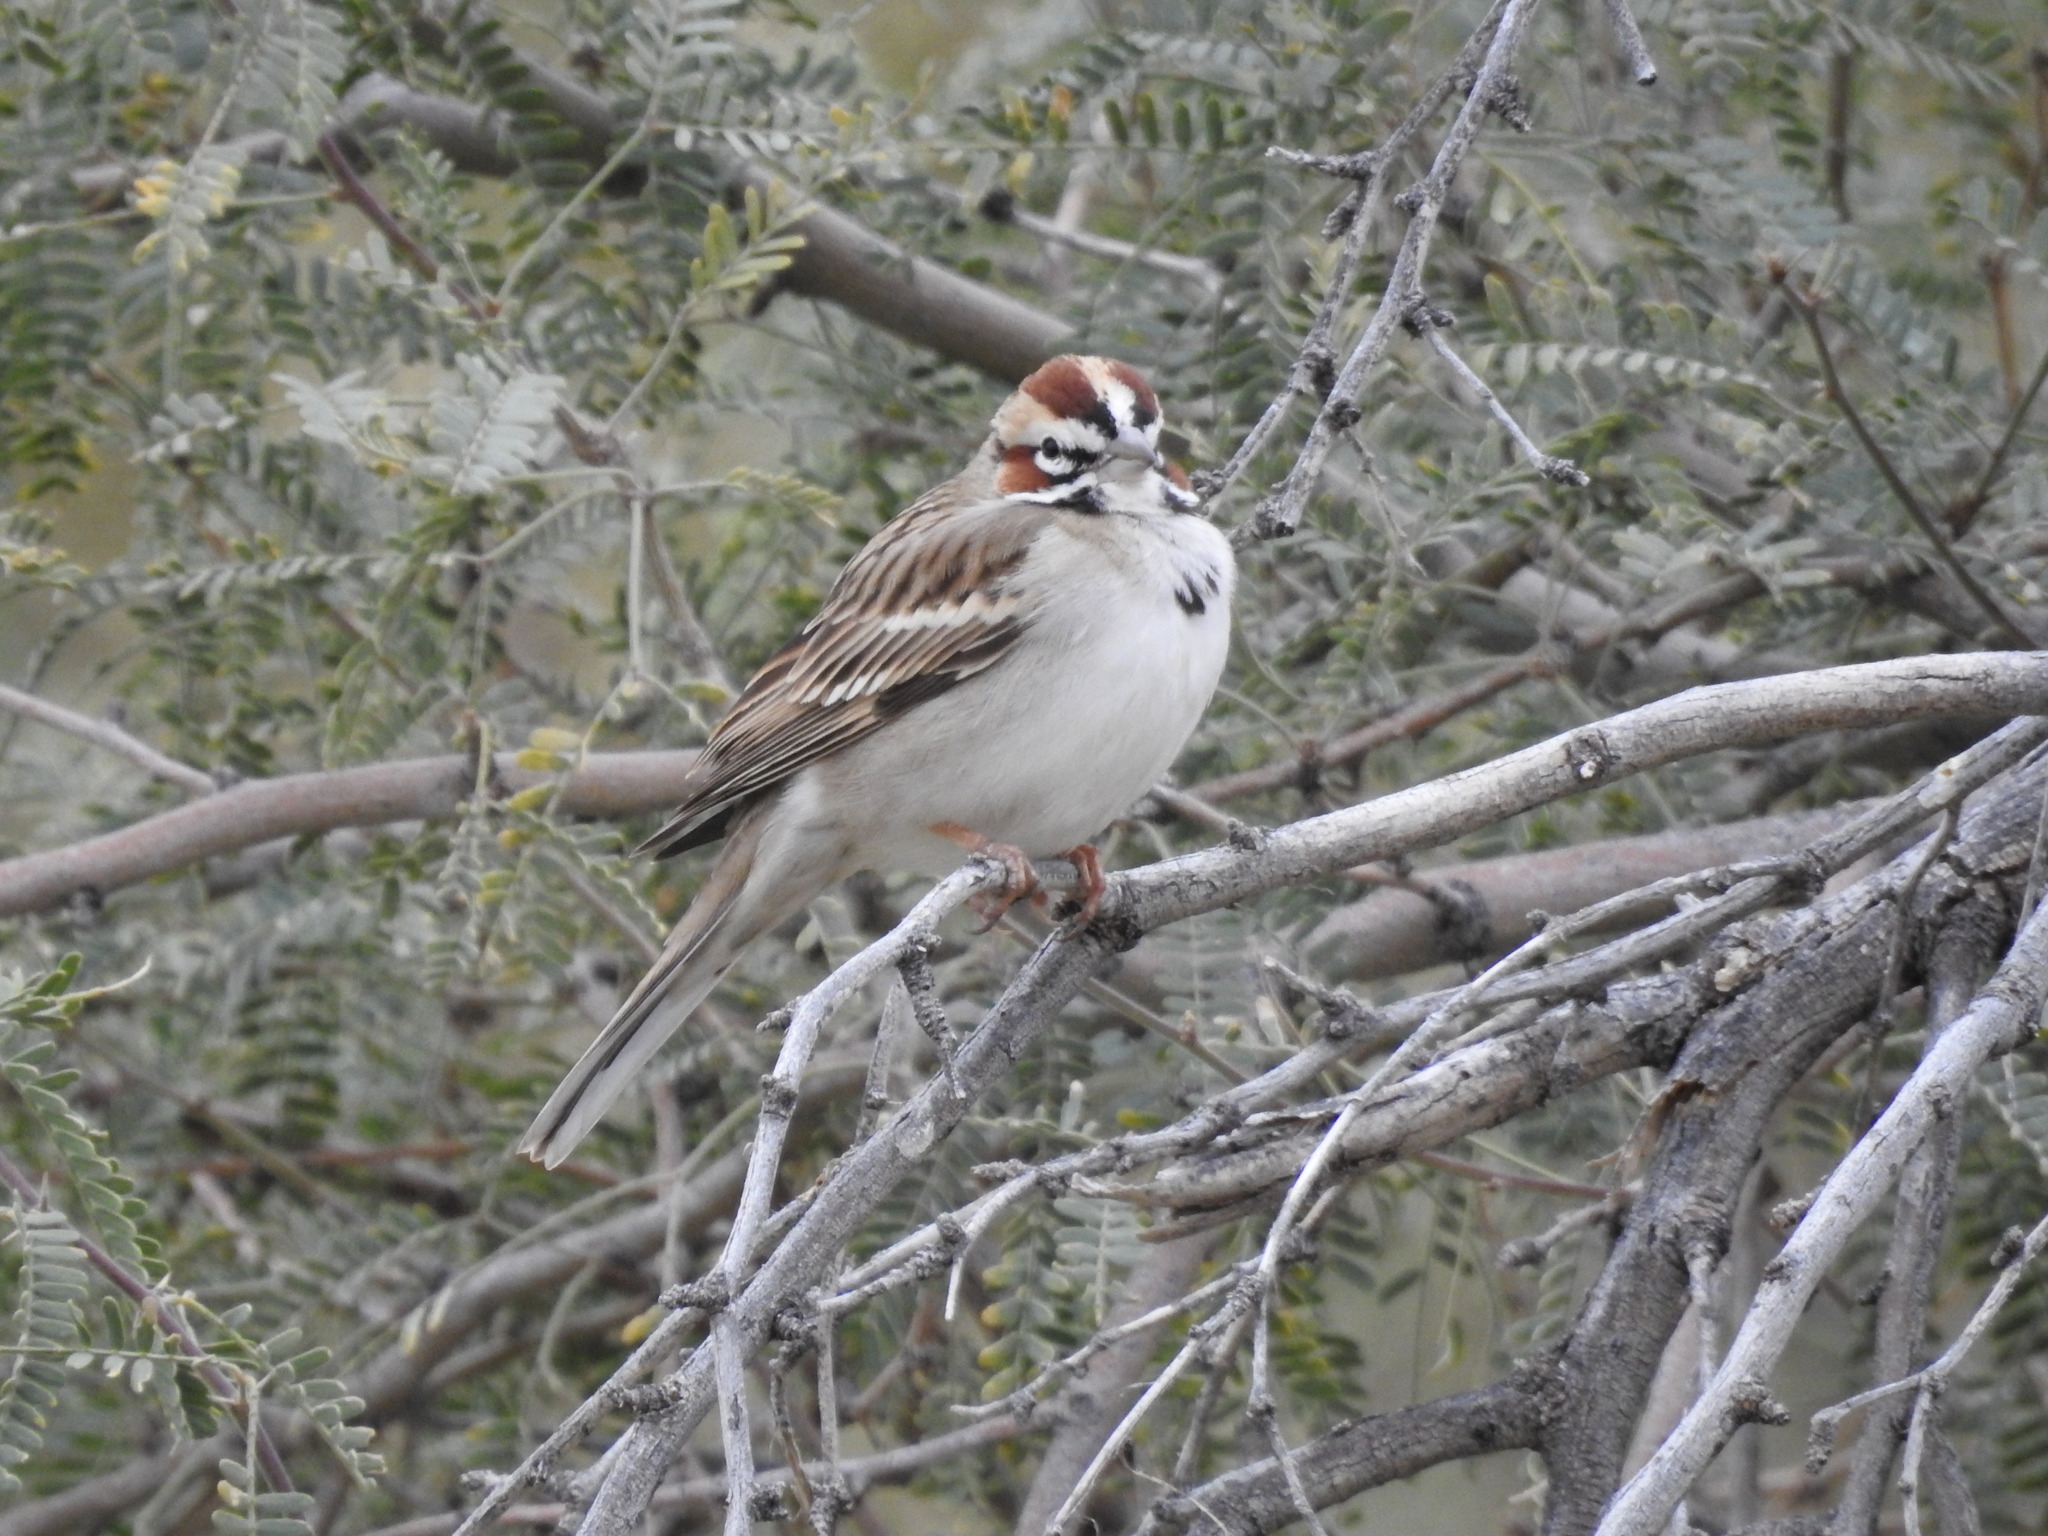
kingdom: Animalia
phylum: Chordata
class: Aves
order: Passeriformes
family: Passerellidae
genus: Chondestes
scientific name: Chondestes grammacus
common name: Lark sparrow
